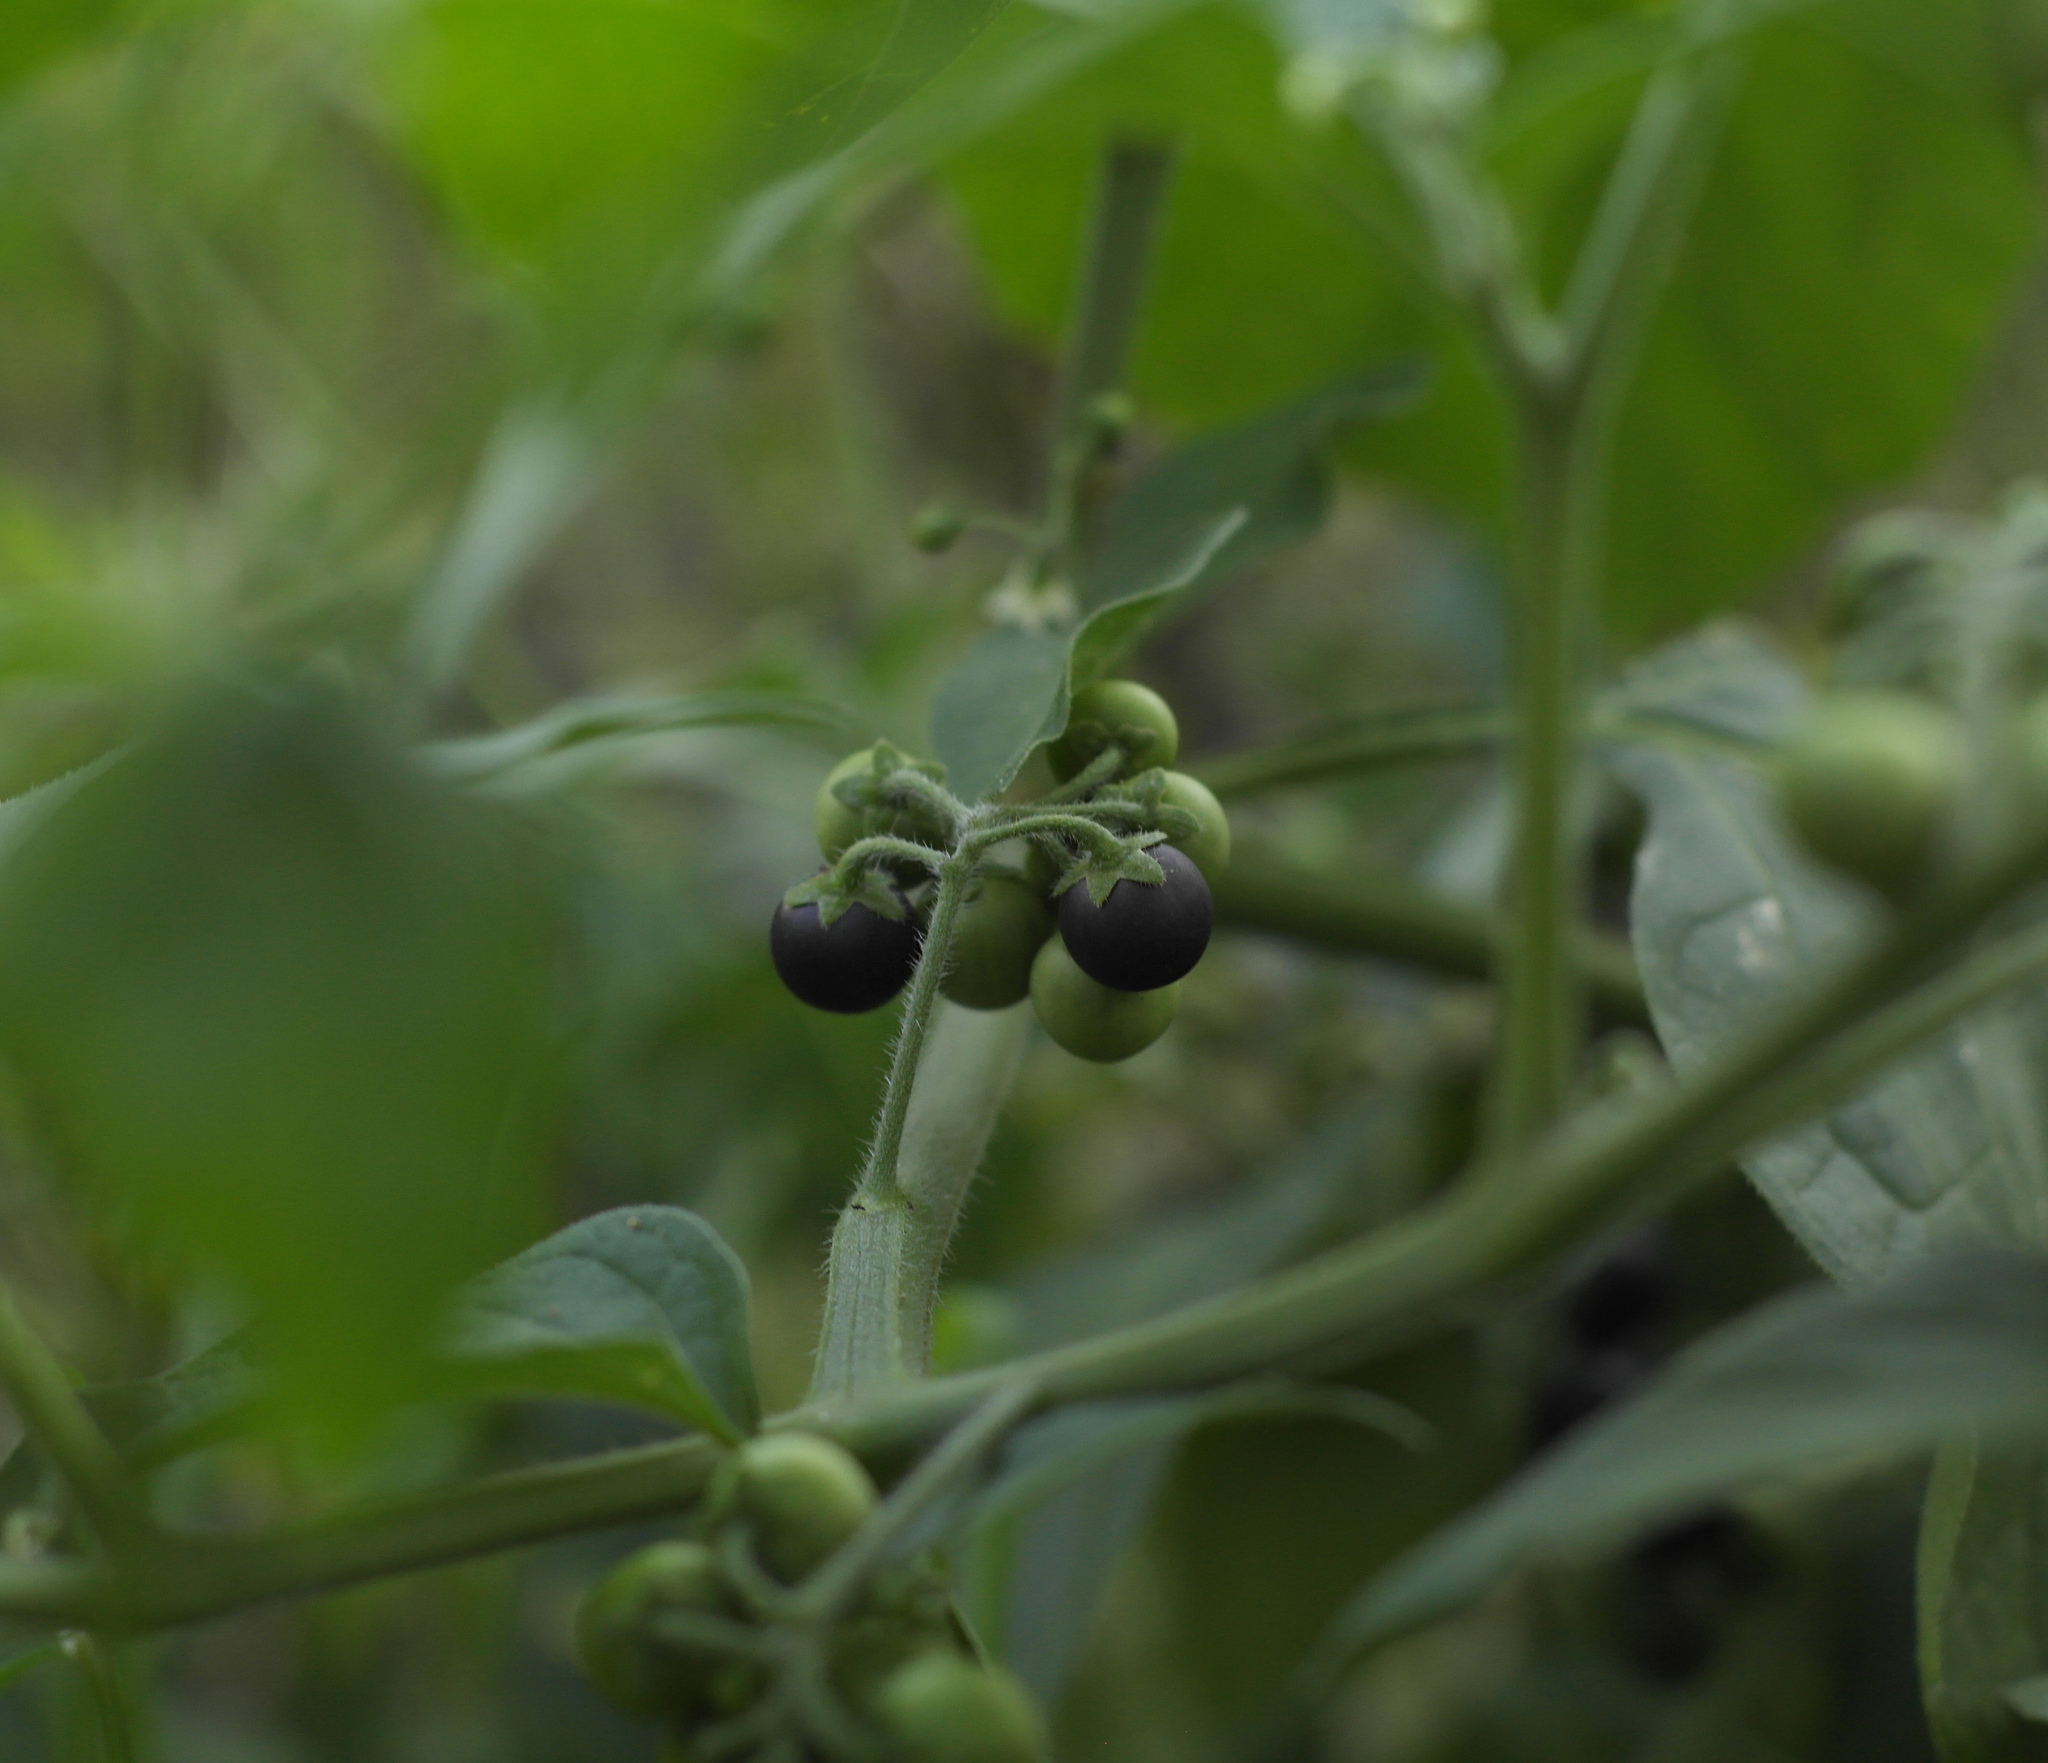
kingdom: Plantae
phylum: Tracheophyta
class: Magnoliopsida
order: Solanales
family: Solanaceae
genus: Solanum
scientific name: Solanum nigrum
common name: Black nightshade
